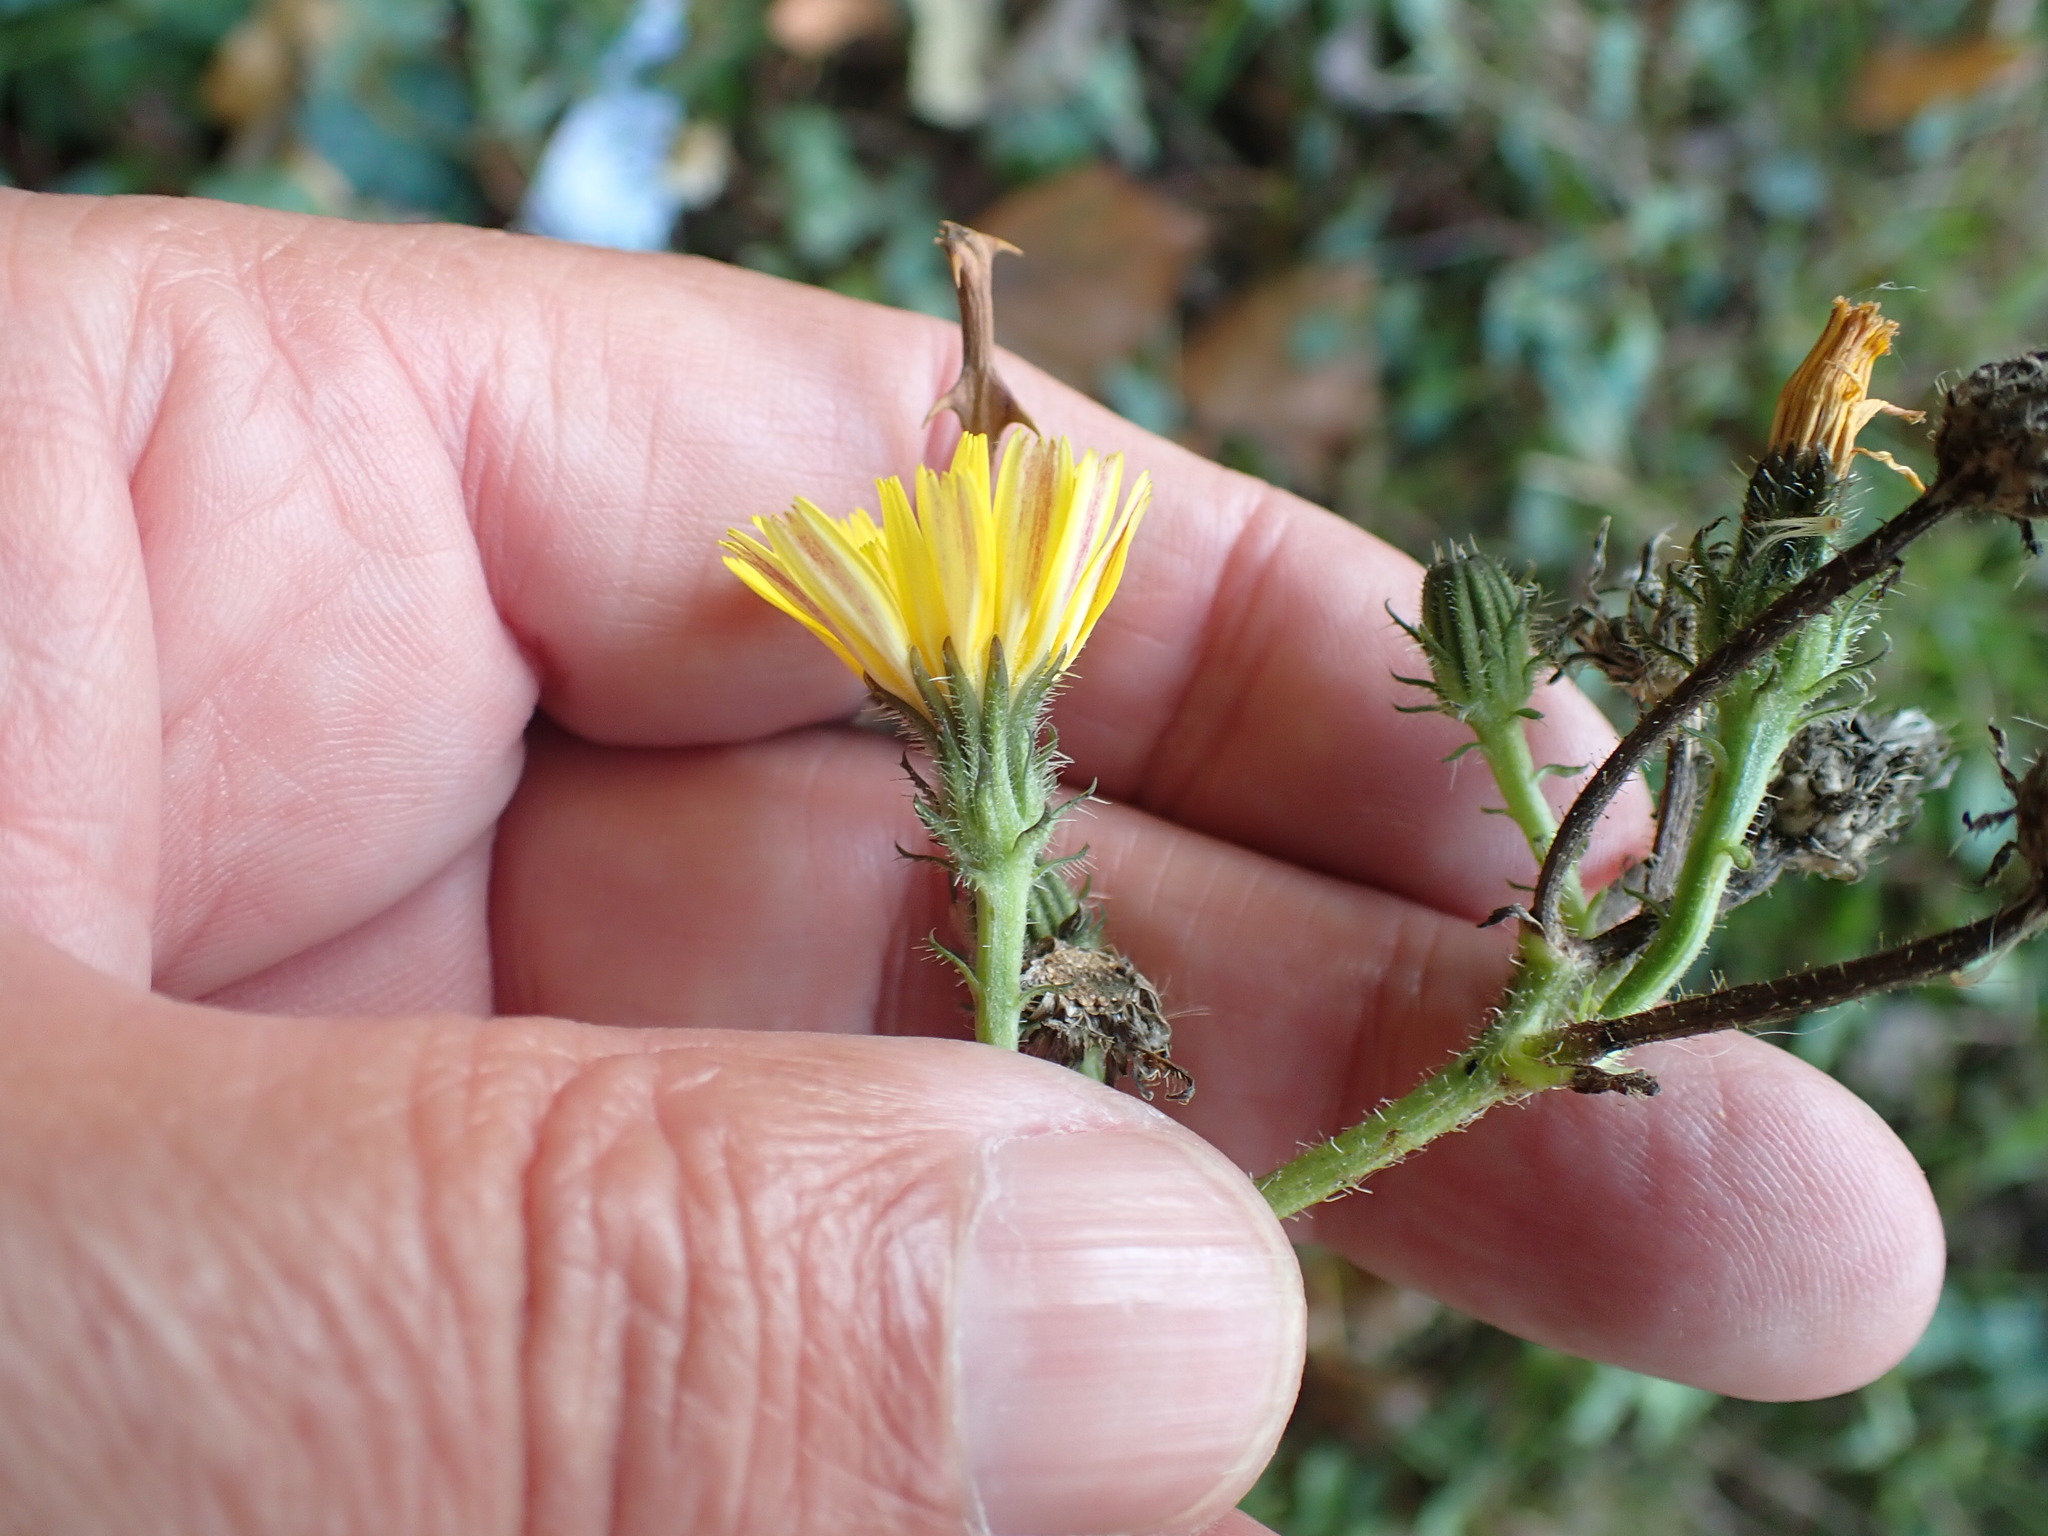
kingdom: Plantae
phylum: Tracheophyta
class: Magnoliopsida
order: Asterales
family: Asteraceae
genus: Picris
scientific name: Picris hieracioides
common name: Hawkweed oxtongue
